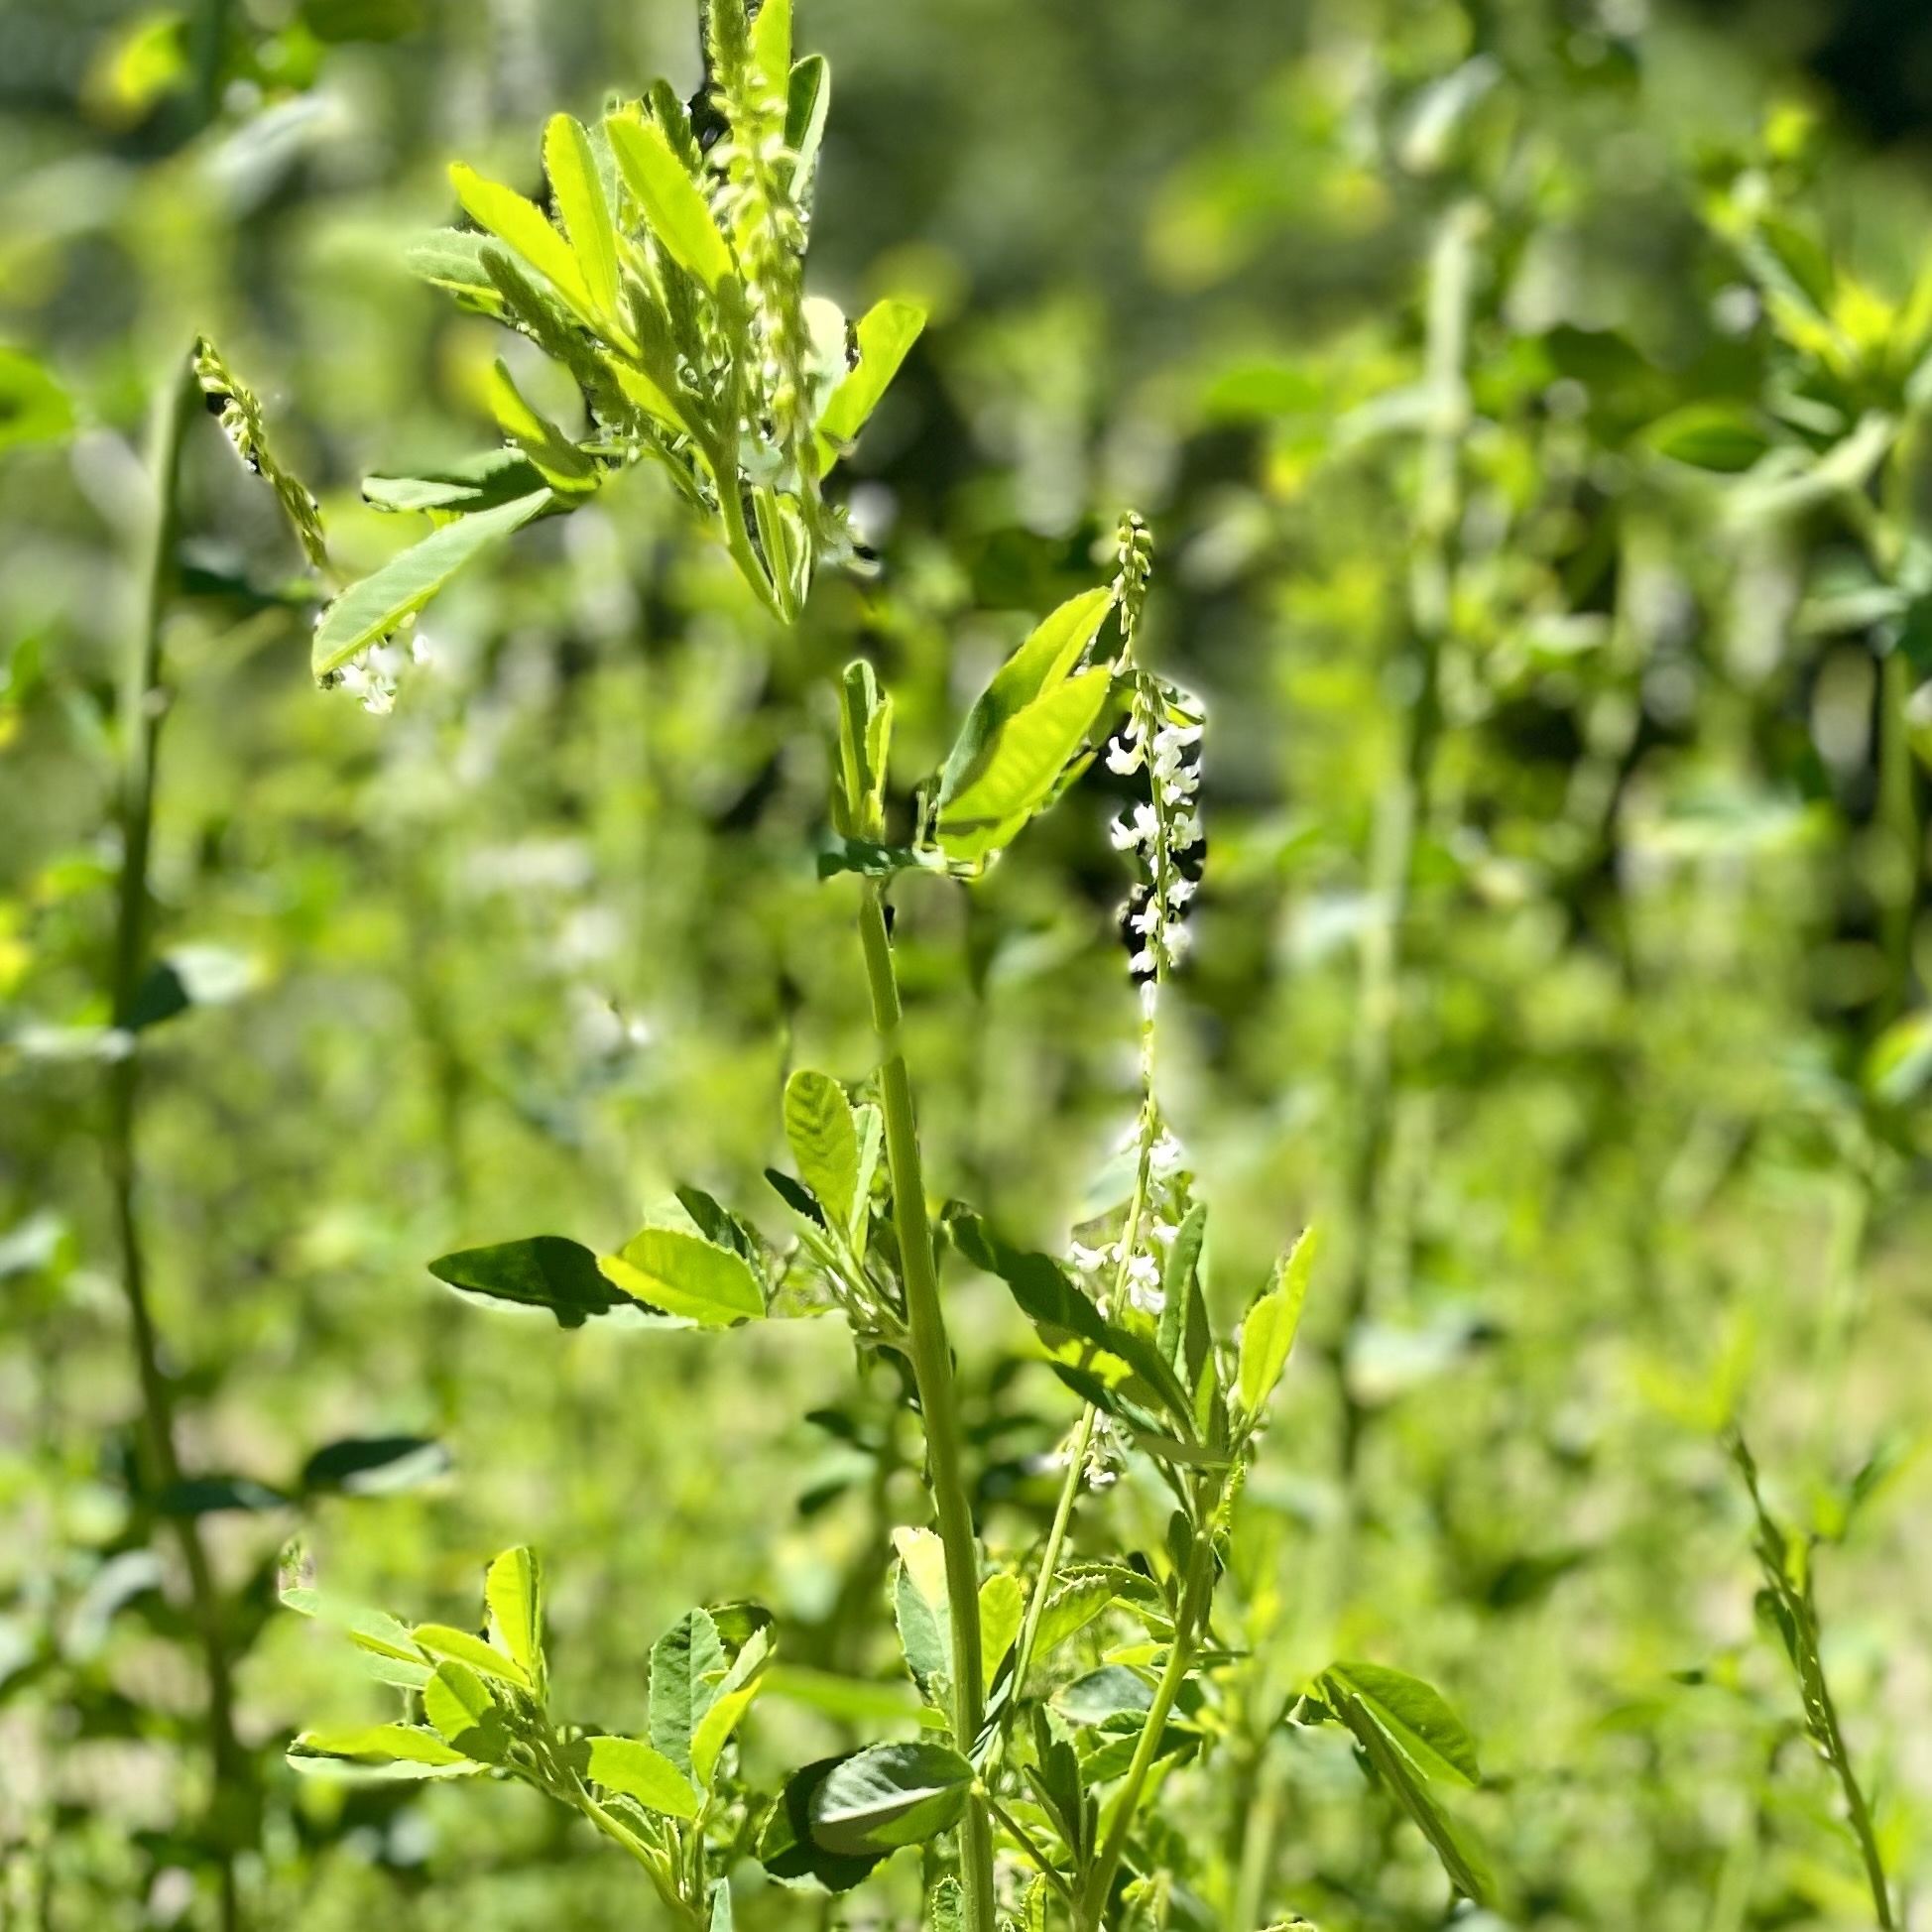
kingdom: Plantae
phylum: Tracheophyta
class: Magnoliopsida
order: Fabales
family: Fabaceae
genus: Melilotus
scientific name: Melilotus albus
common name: White melilot
